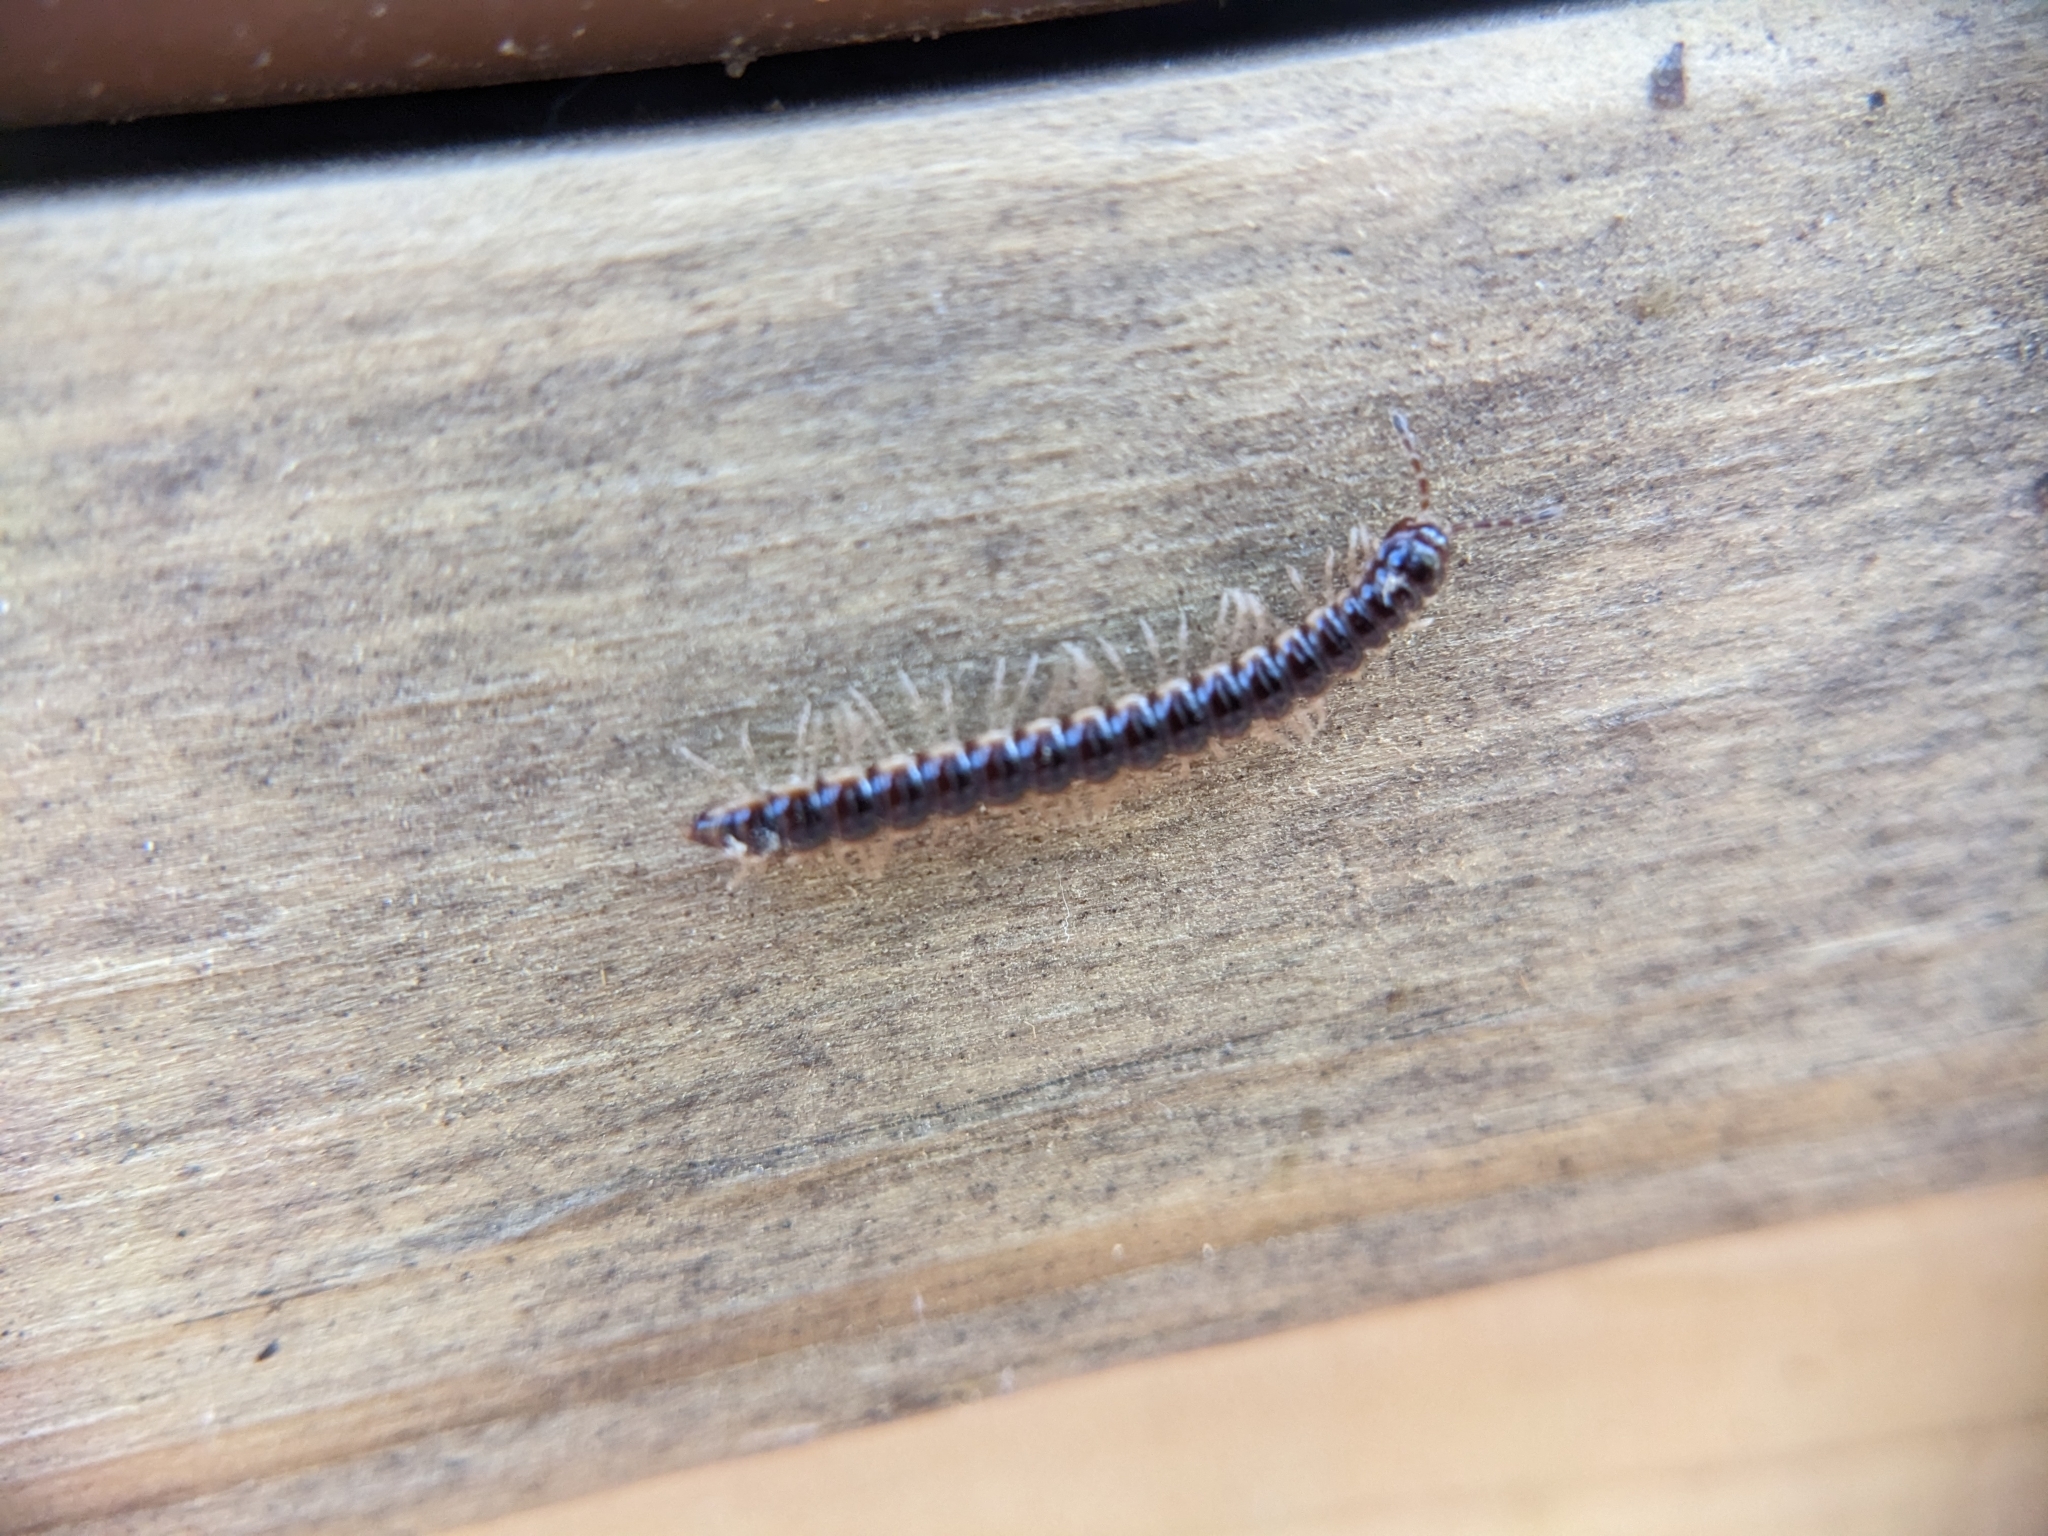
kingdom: Animalia
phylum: Arthropoda
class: Diplopoda
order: Polydesmida
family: Paradoxosomatidae
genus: Oxidus
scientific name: Oxidus gracilis
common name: Greenhouse millipede
